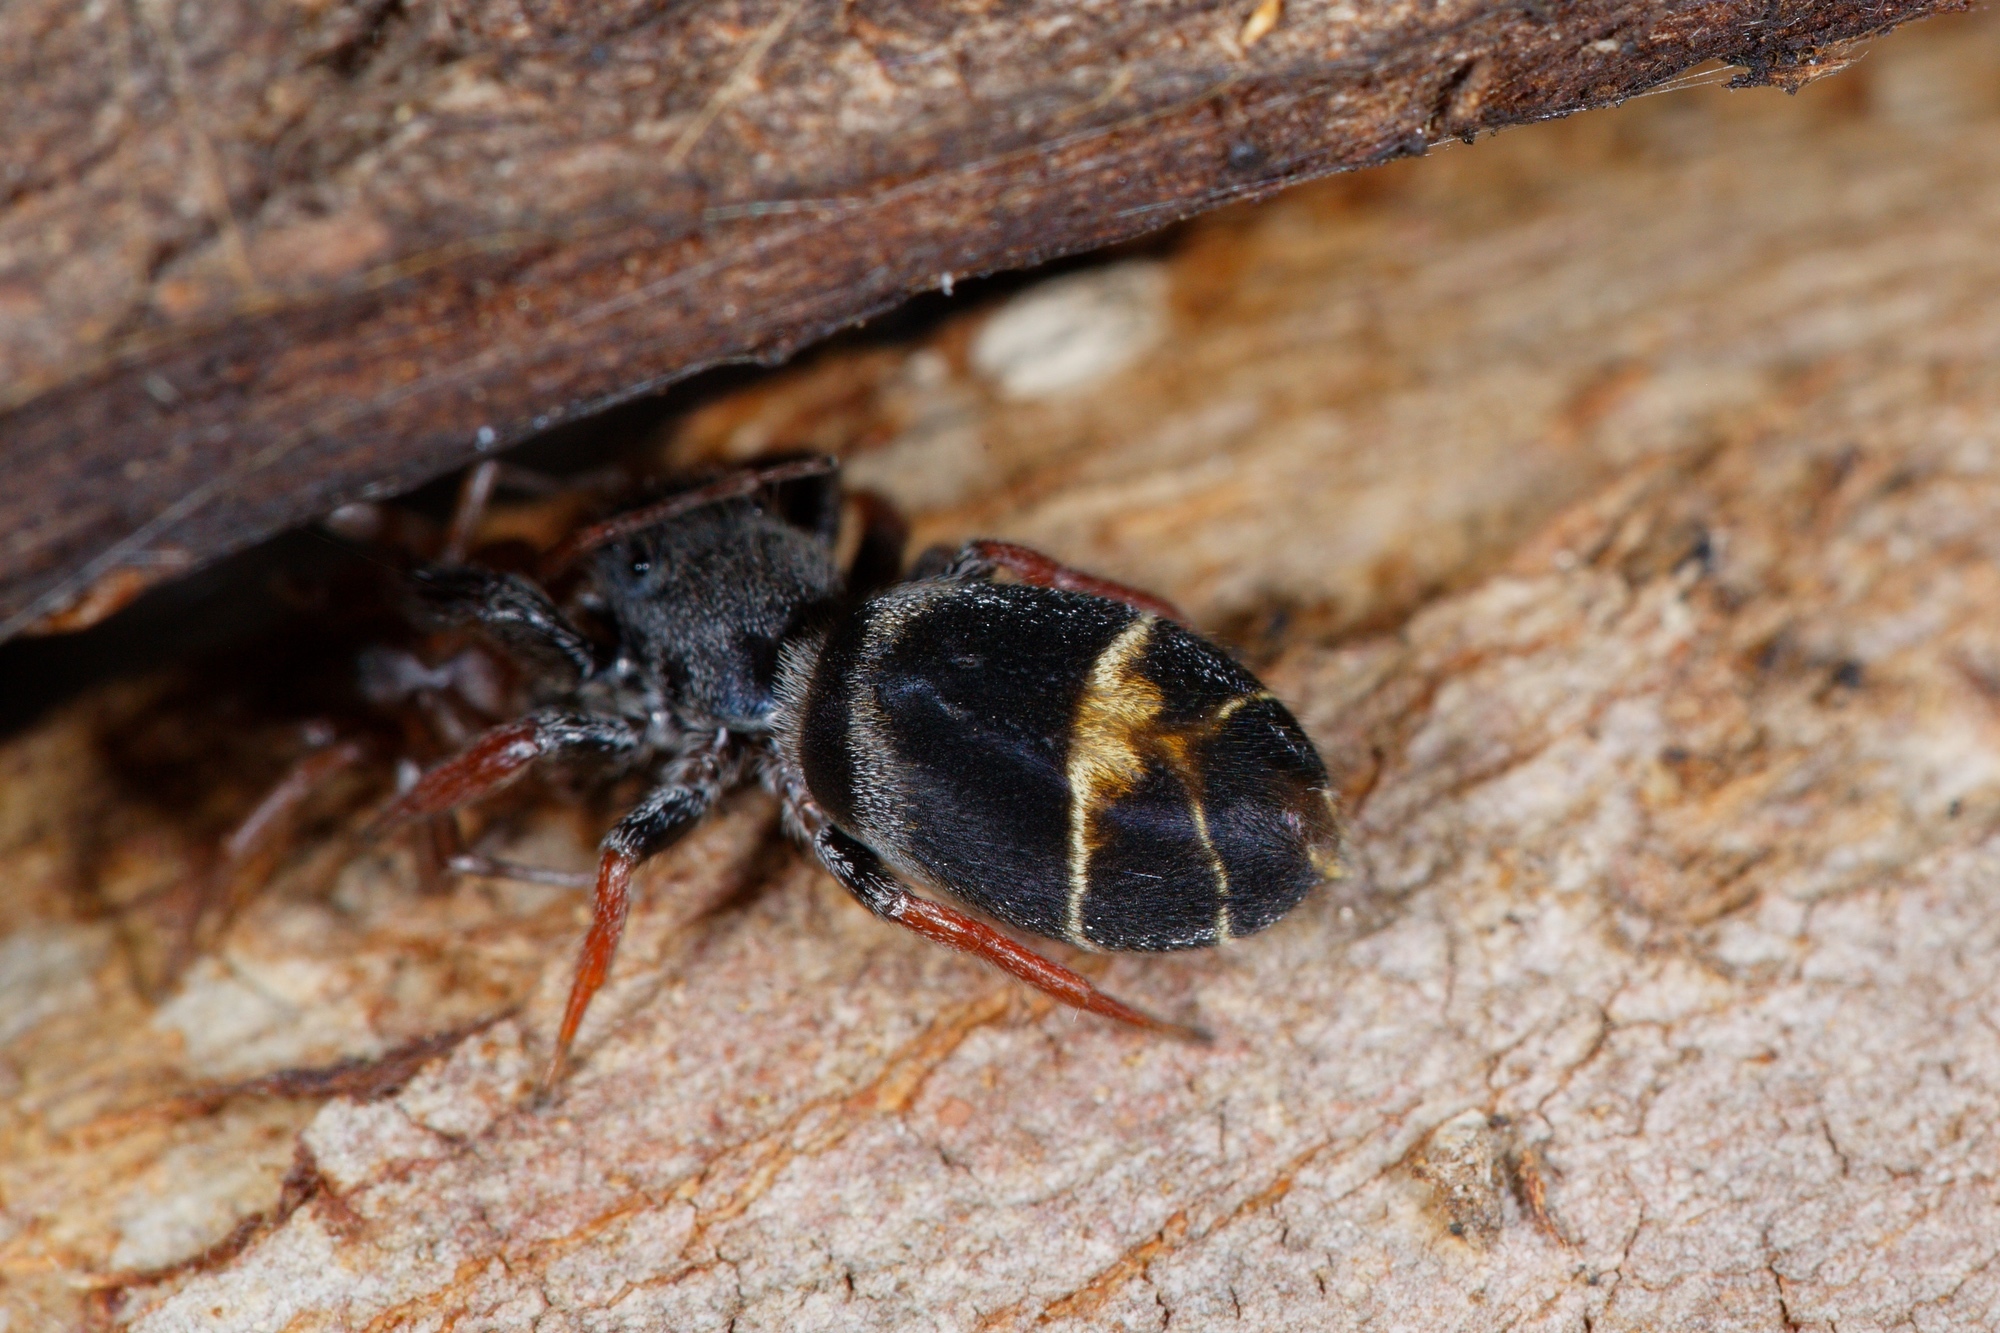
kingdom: Animalia
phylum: Arthropoda
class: Arachnida
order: Araneae
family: Salticidae
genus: Apricia
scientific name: Apricia jovialis
